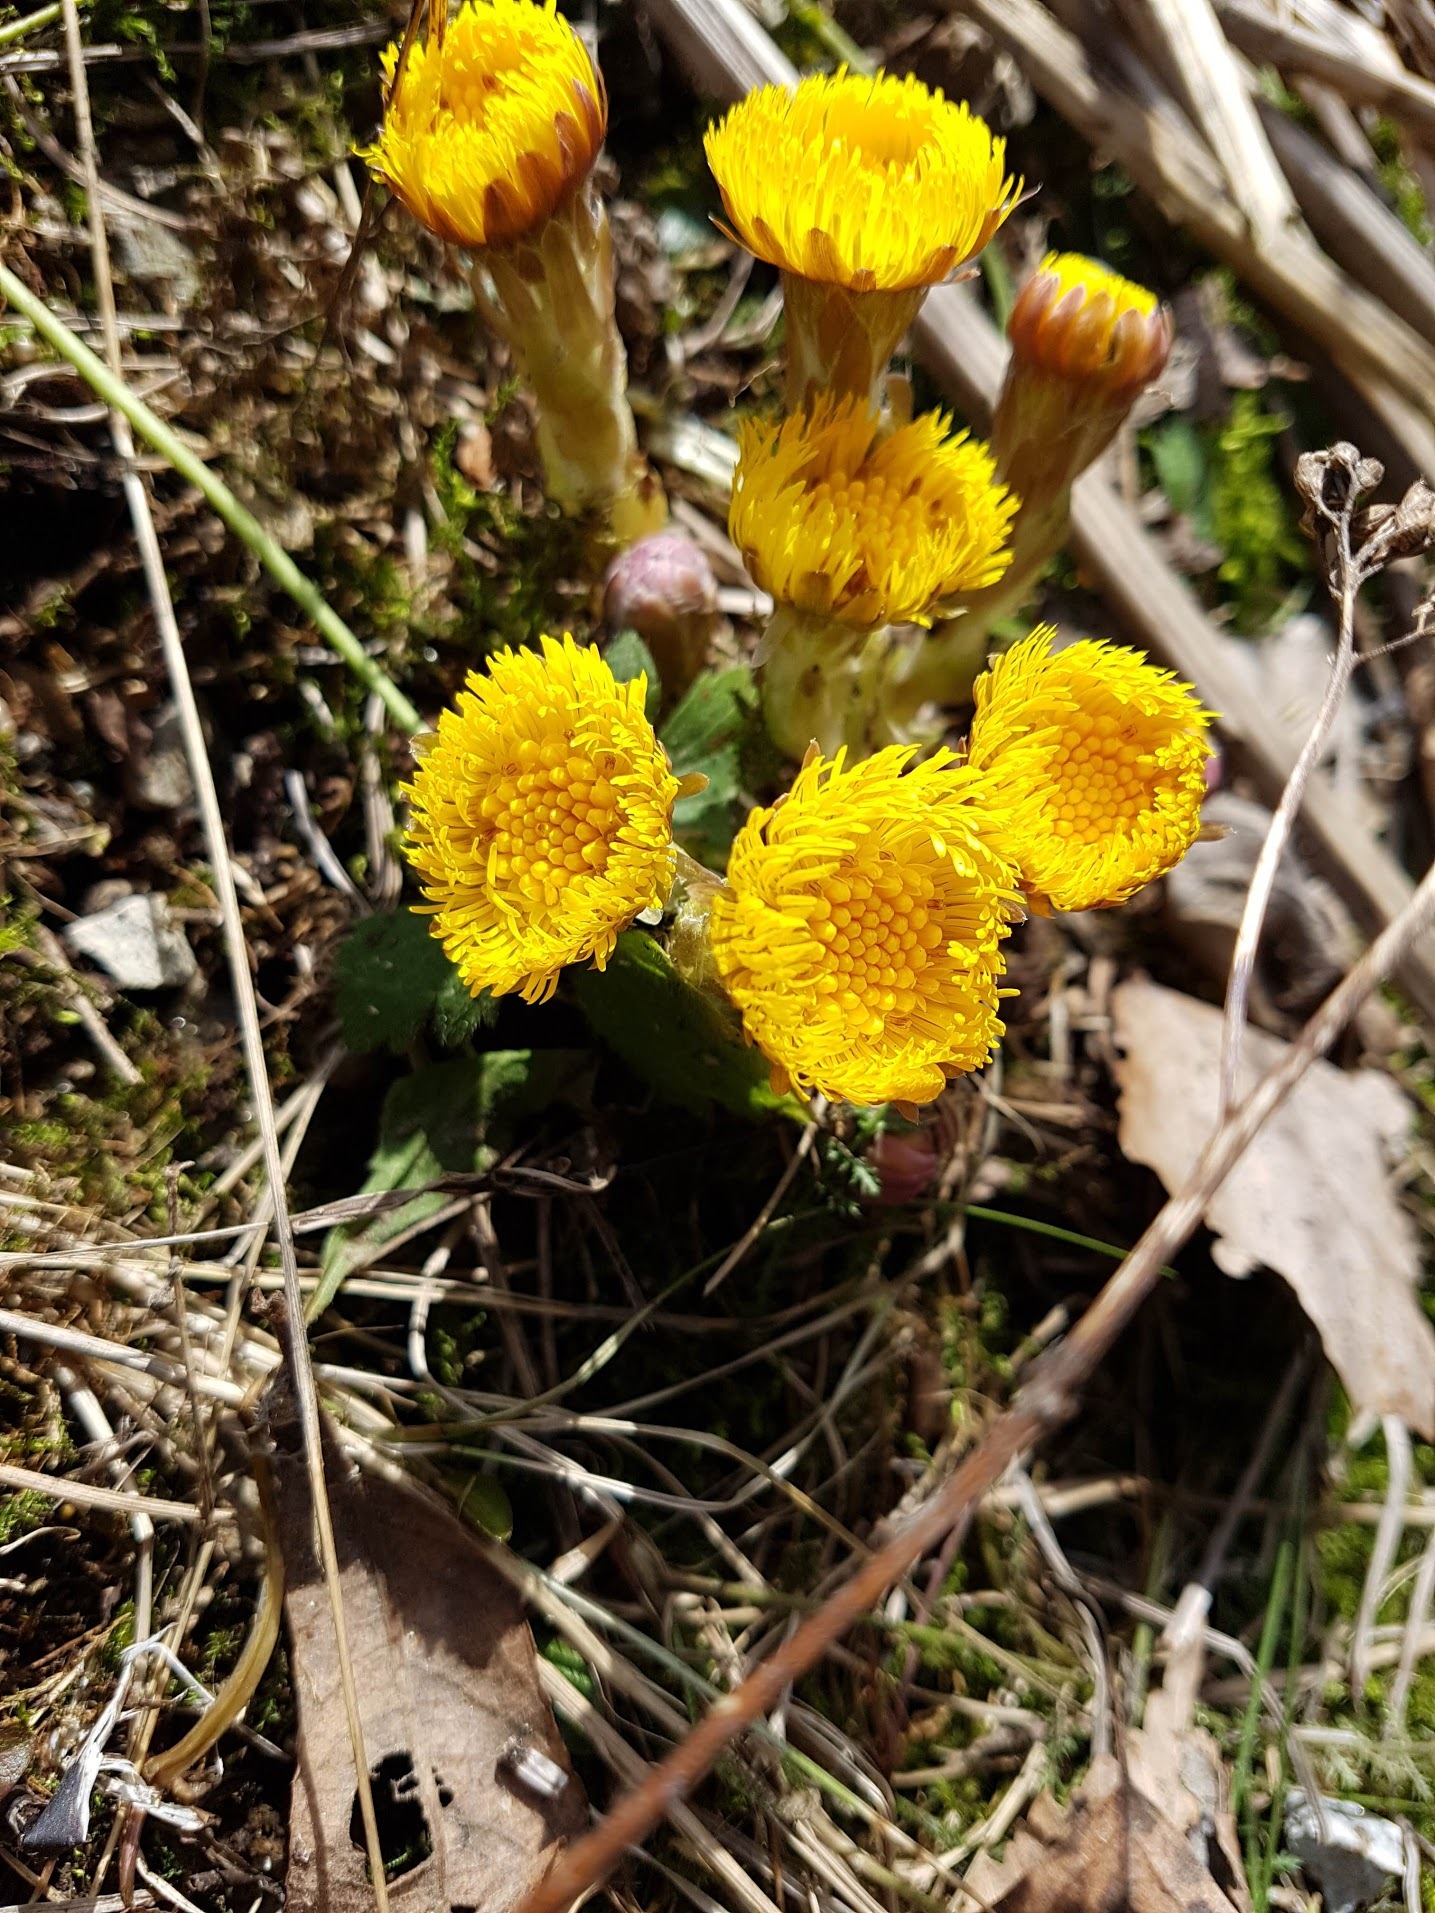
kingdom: Plantae
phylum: Tracheophyta
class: Magnoliopsida
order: Asterales
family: Asteraceae
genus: Tussilago
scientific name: Tussilago farfara
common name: Coltsfoot
